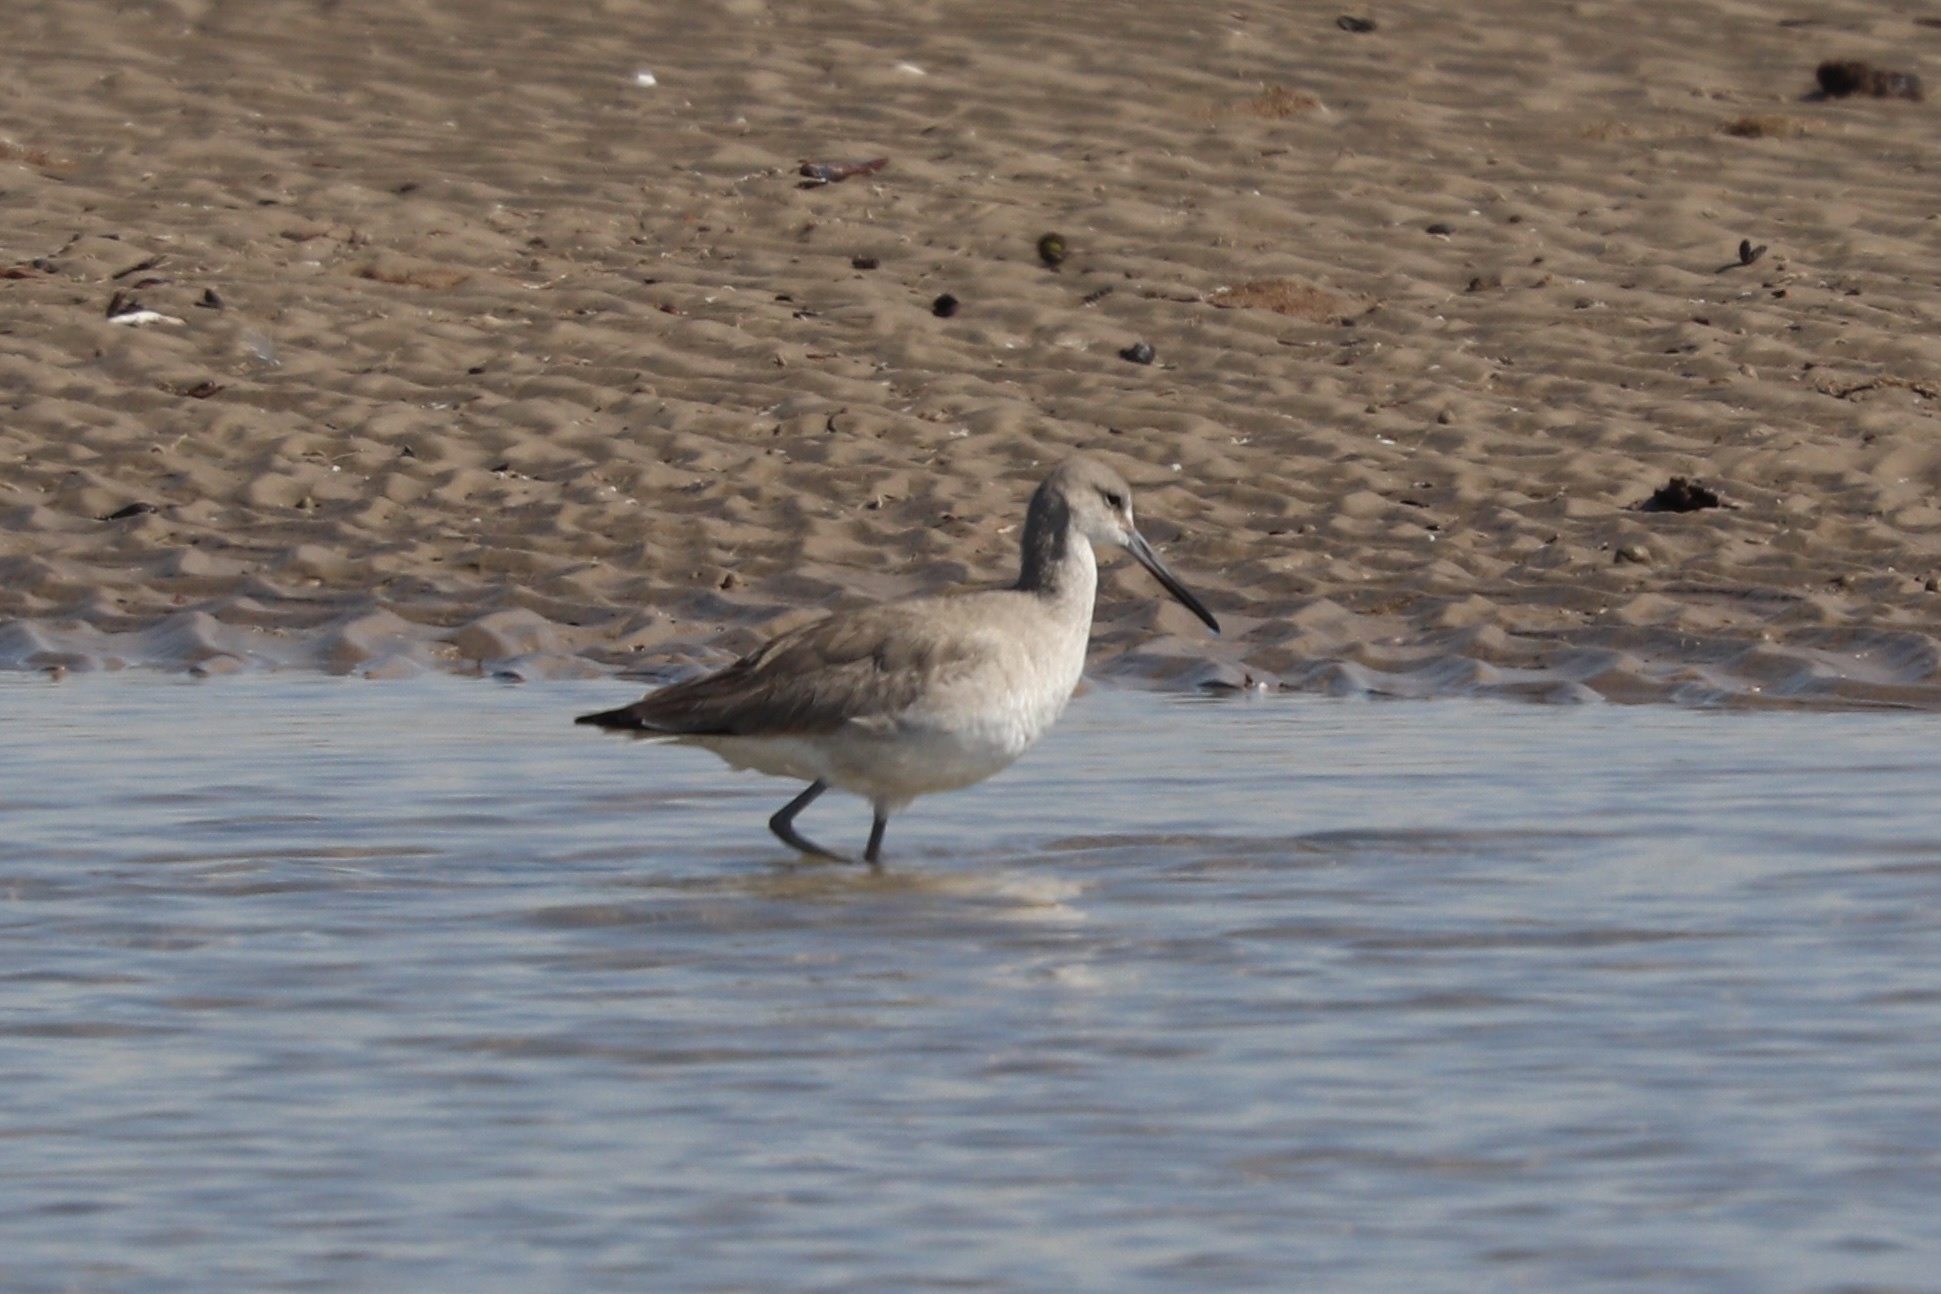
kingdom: Animalia
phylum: Chordata
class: Aves
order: Charadriiformes
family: Scolopacidae
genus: Tringa
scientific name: Tringa semipalmata
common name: Willet
